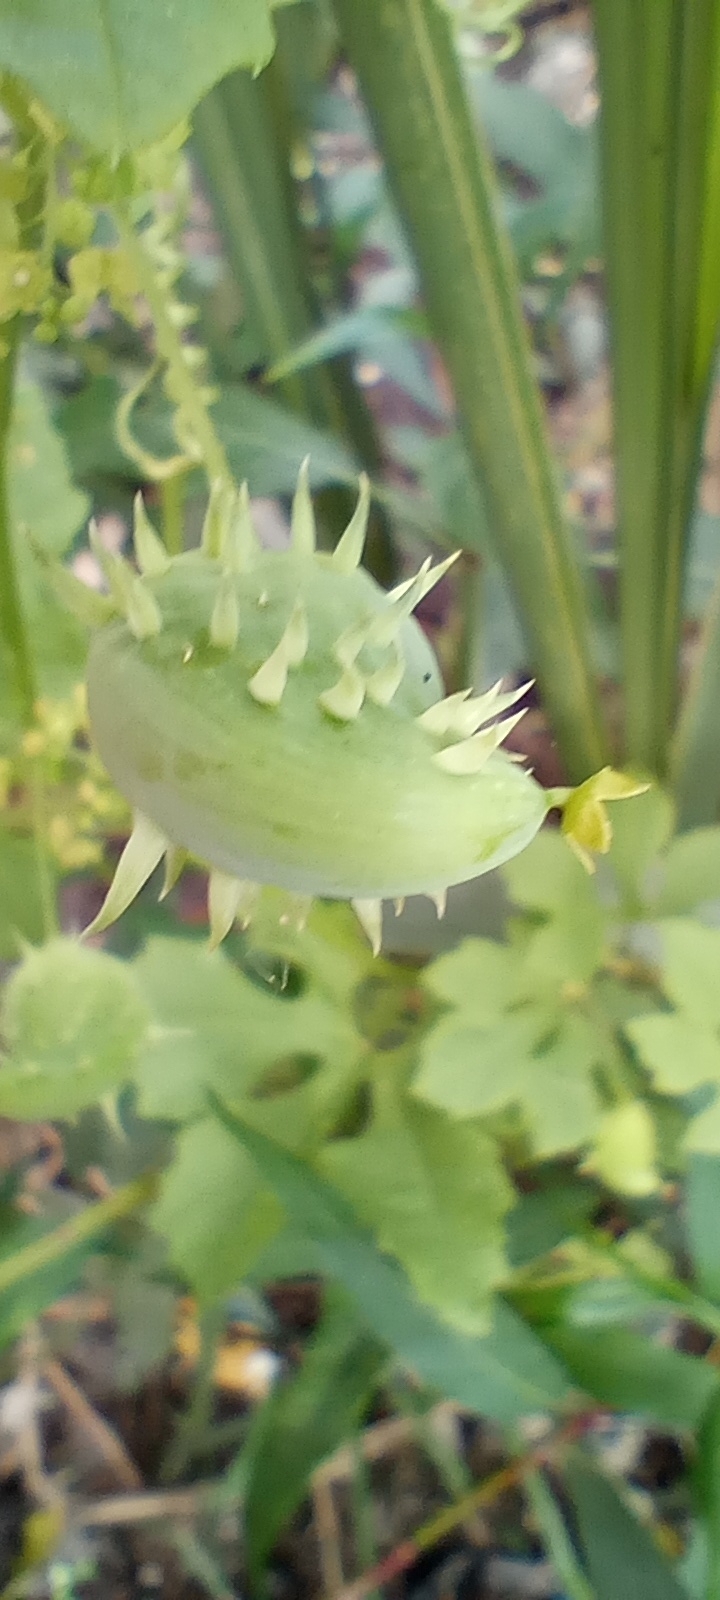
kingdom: Plantae
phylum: Tracheophyta
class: Magnoliopsida
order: Cucurbitales
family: Cucurbitaceae
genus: Cyclanthera
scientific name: Cyclanthera hystrix
